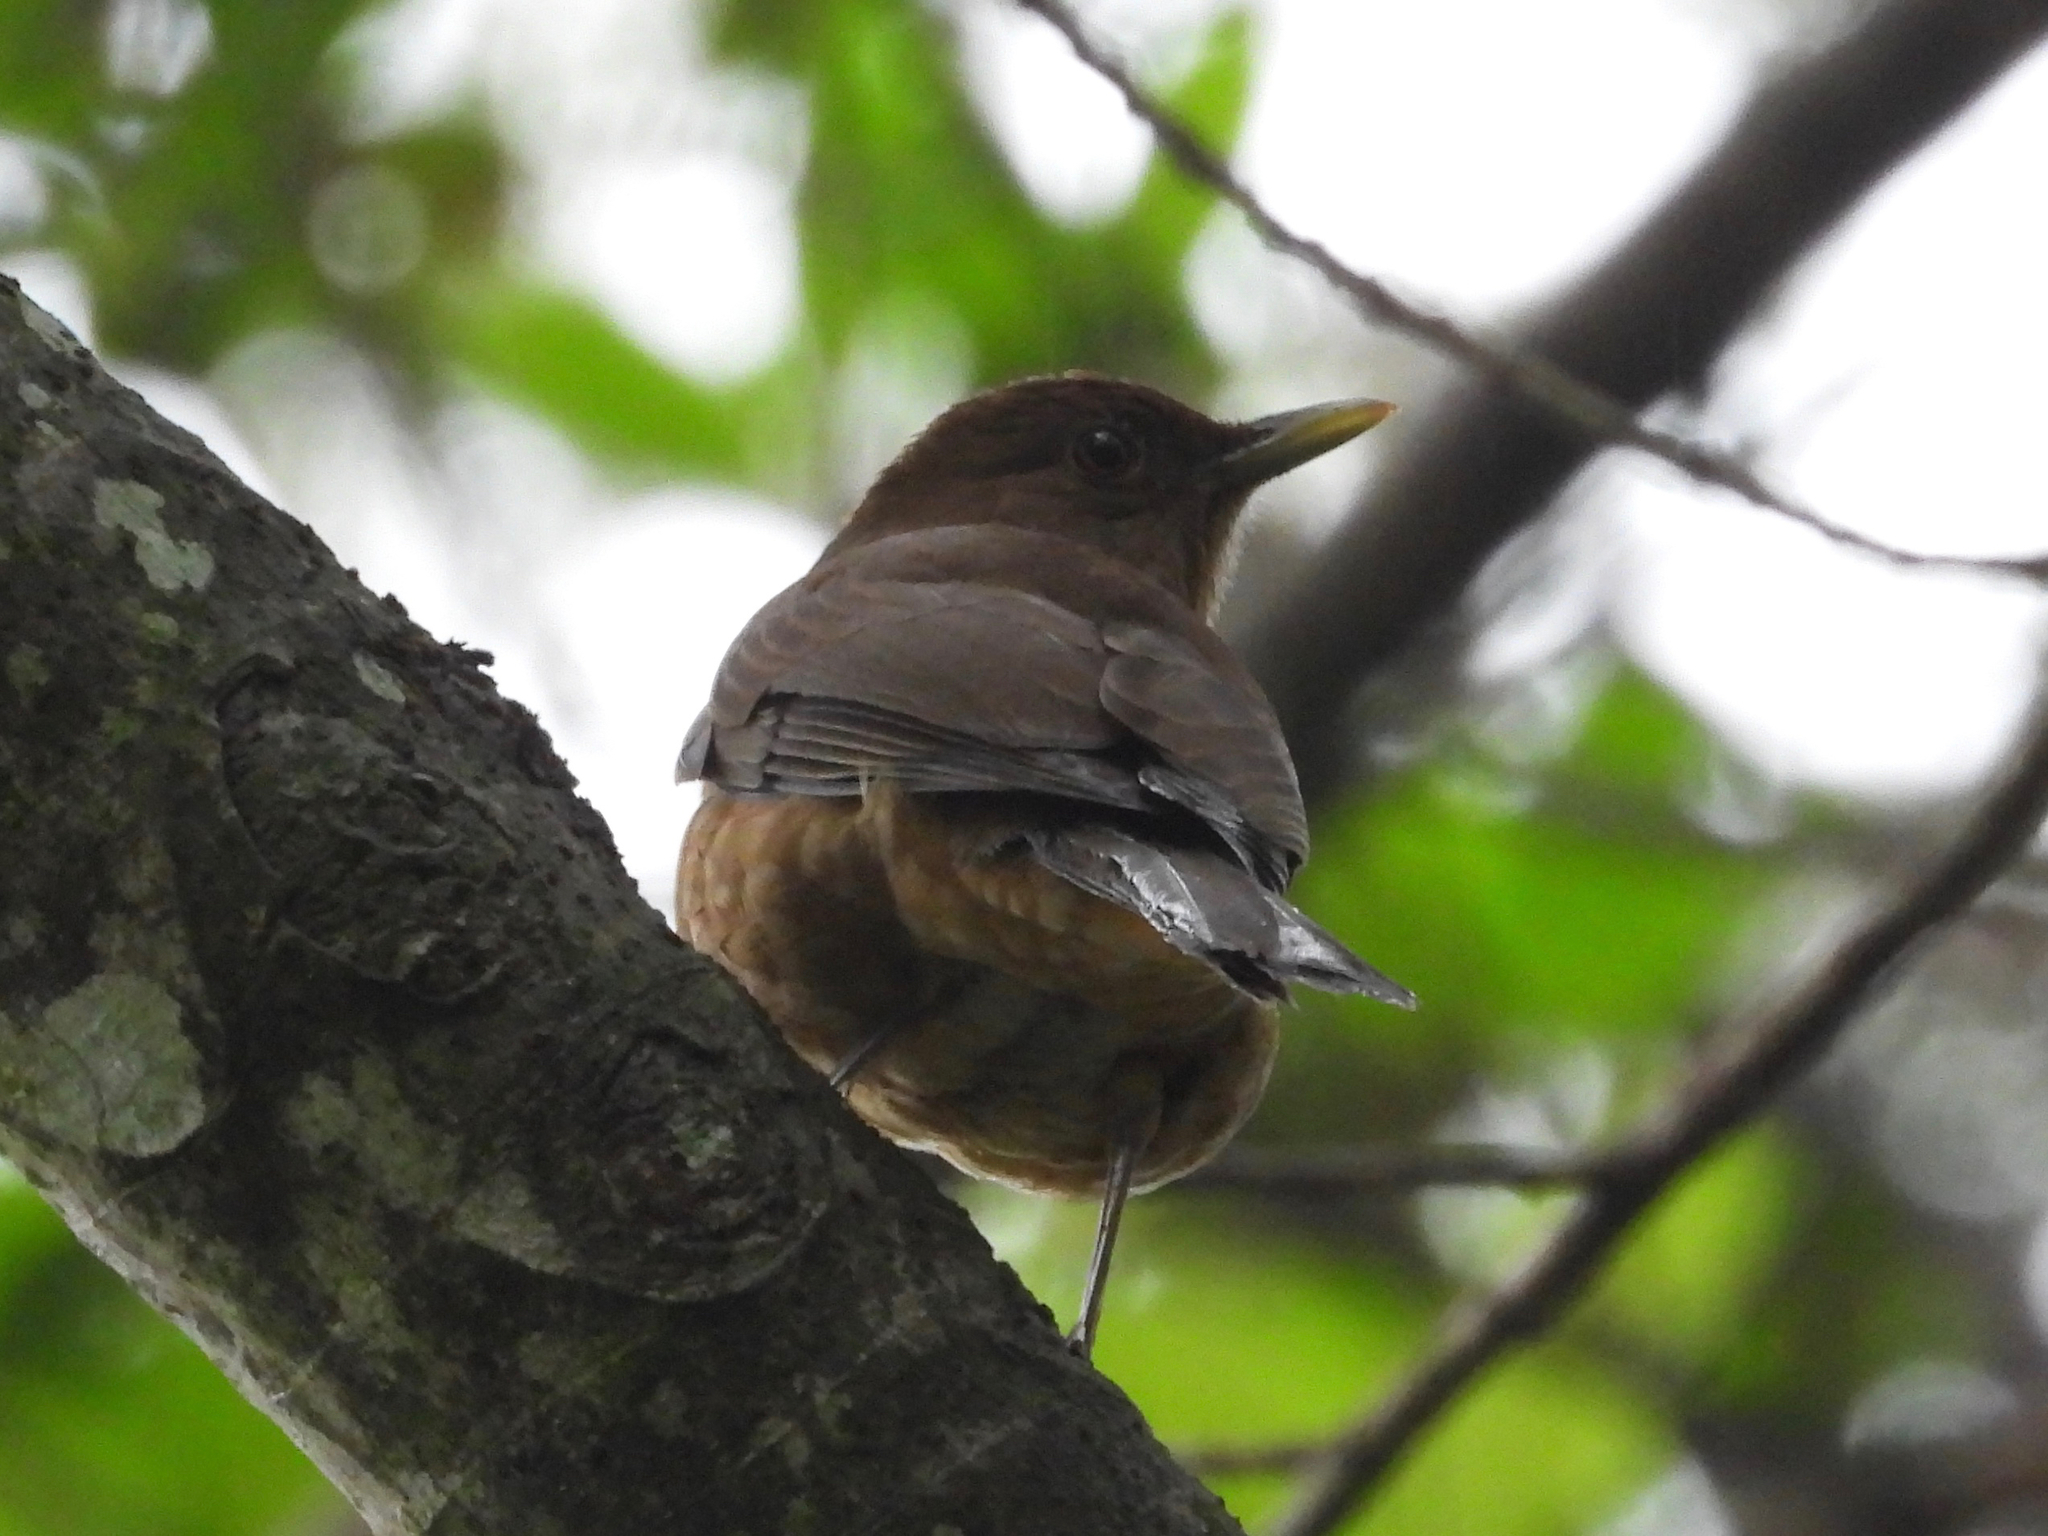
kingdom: Animalia
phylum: Chordata
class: Aves
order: Passeriformes
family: Turdidae
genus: Turdus
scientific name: Turdus grayi
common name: Clay-colored thrush
